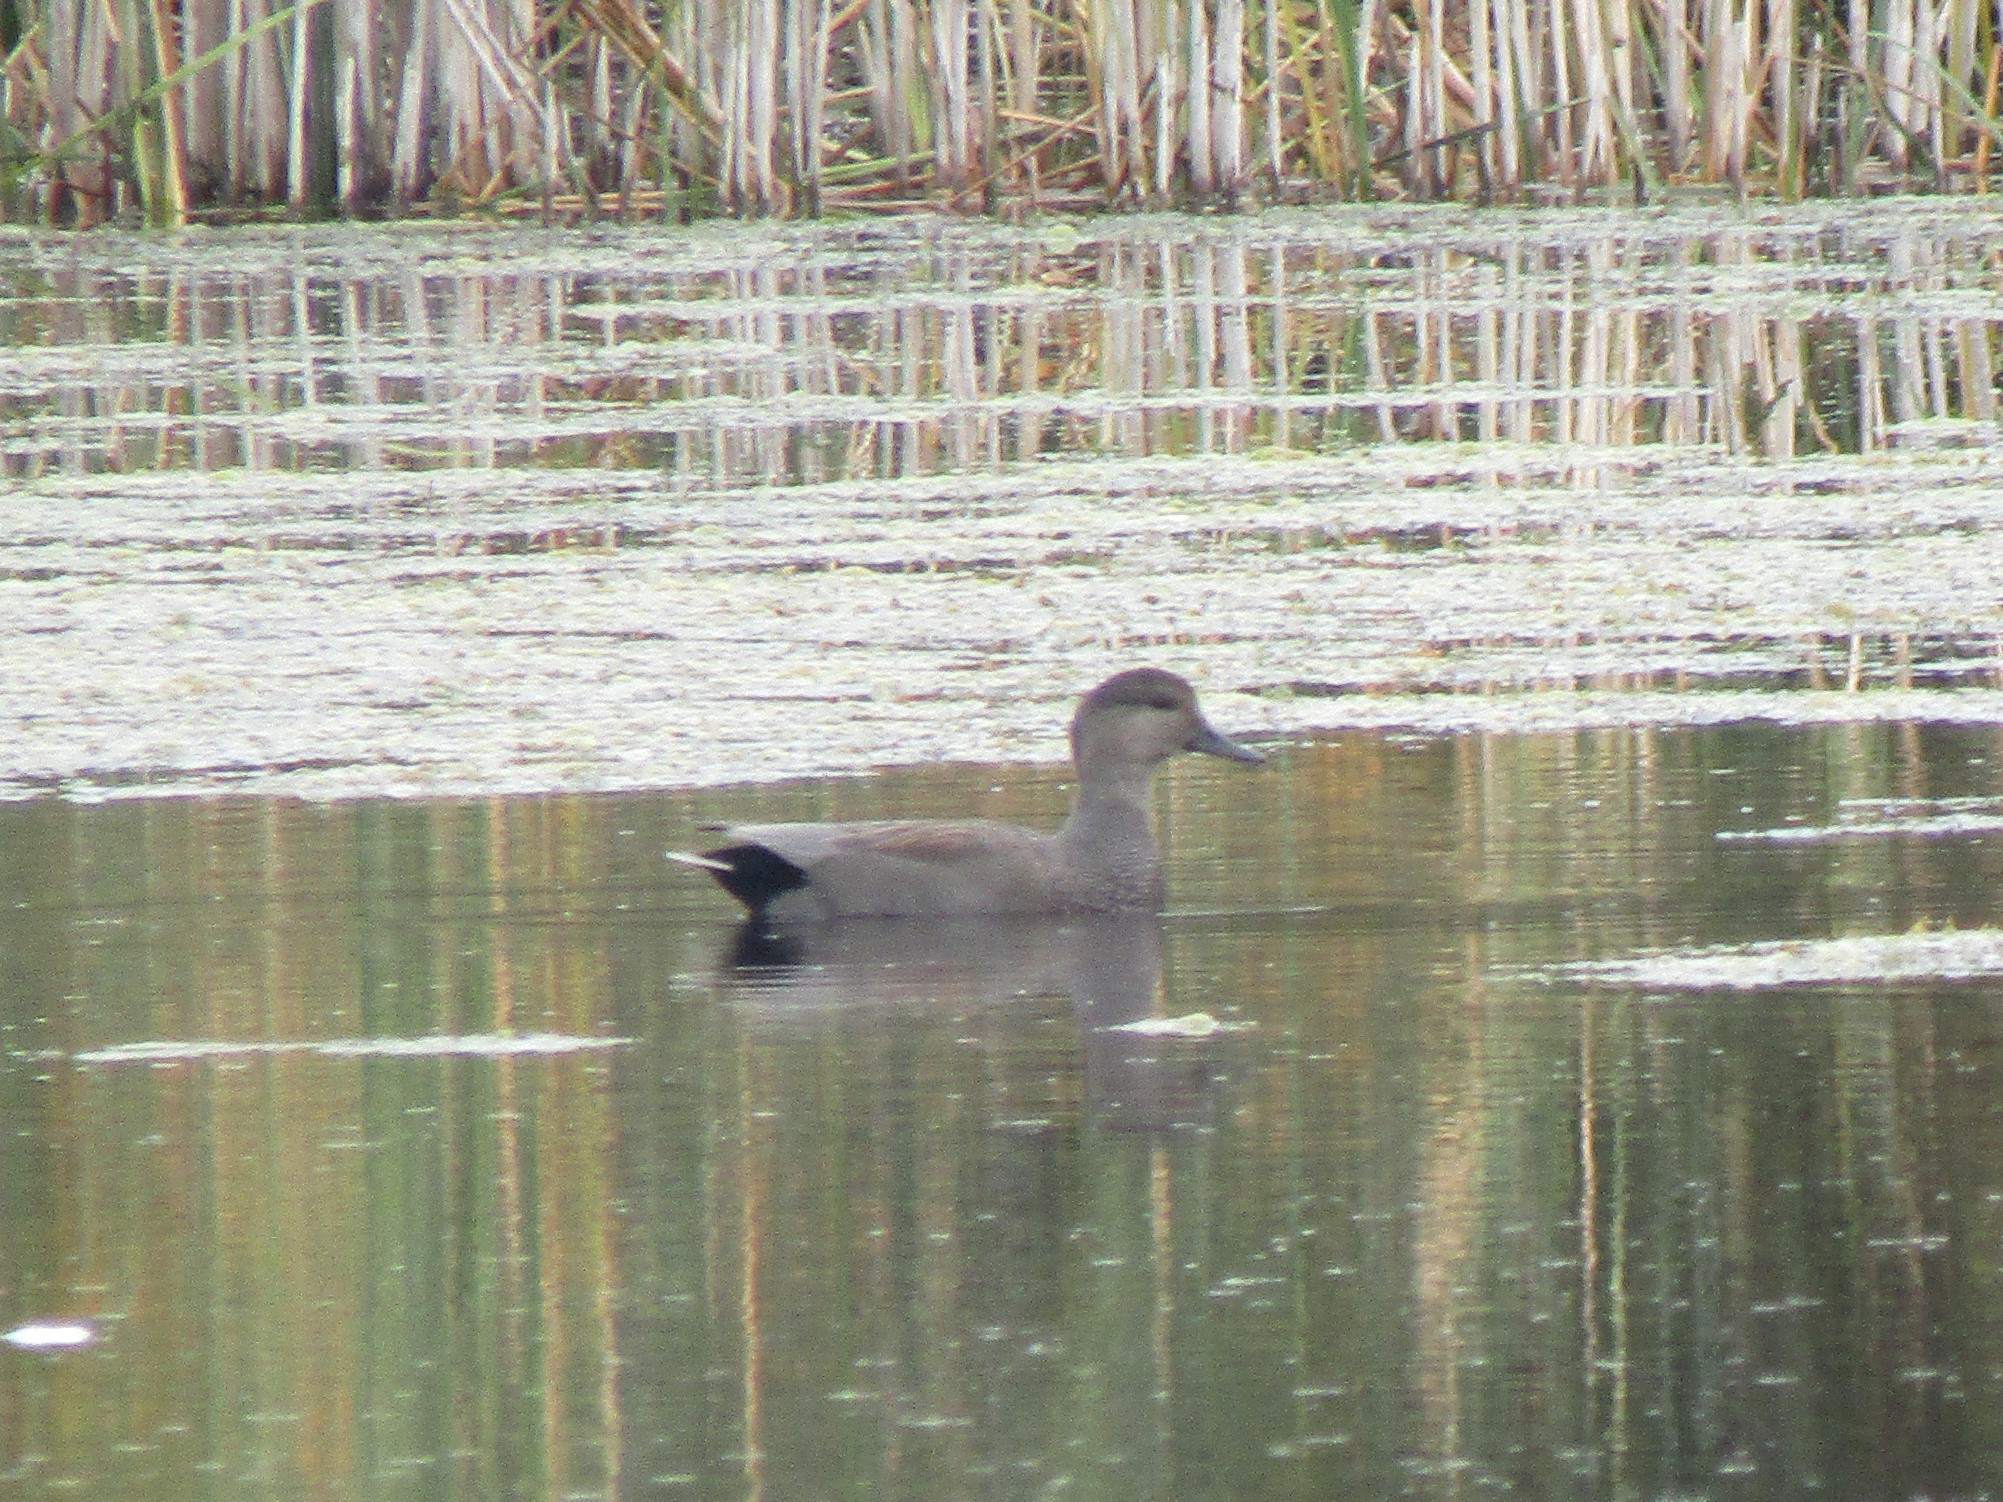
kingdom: Animalia
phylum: Chordata
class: Aves
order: Anseriformes
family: Anatidae
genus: Mareca
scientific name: Mareca strepera
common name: Gadwall
